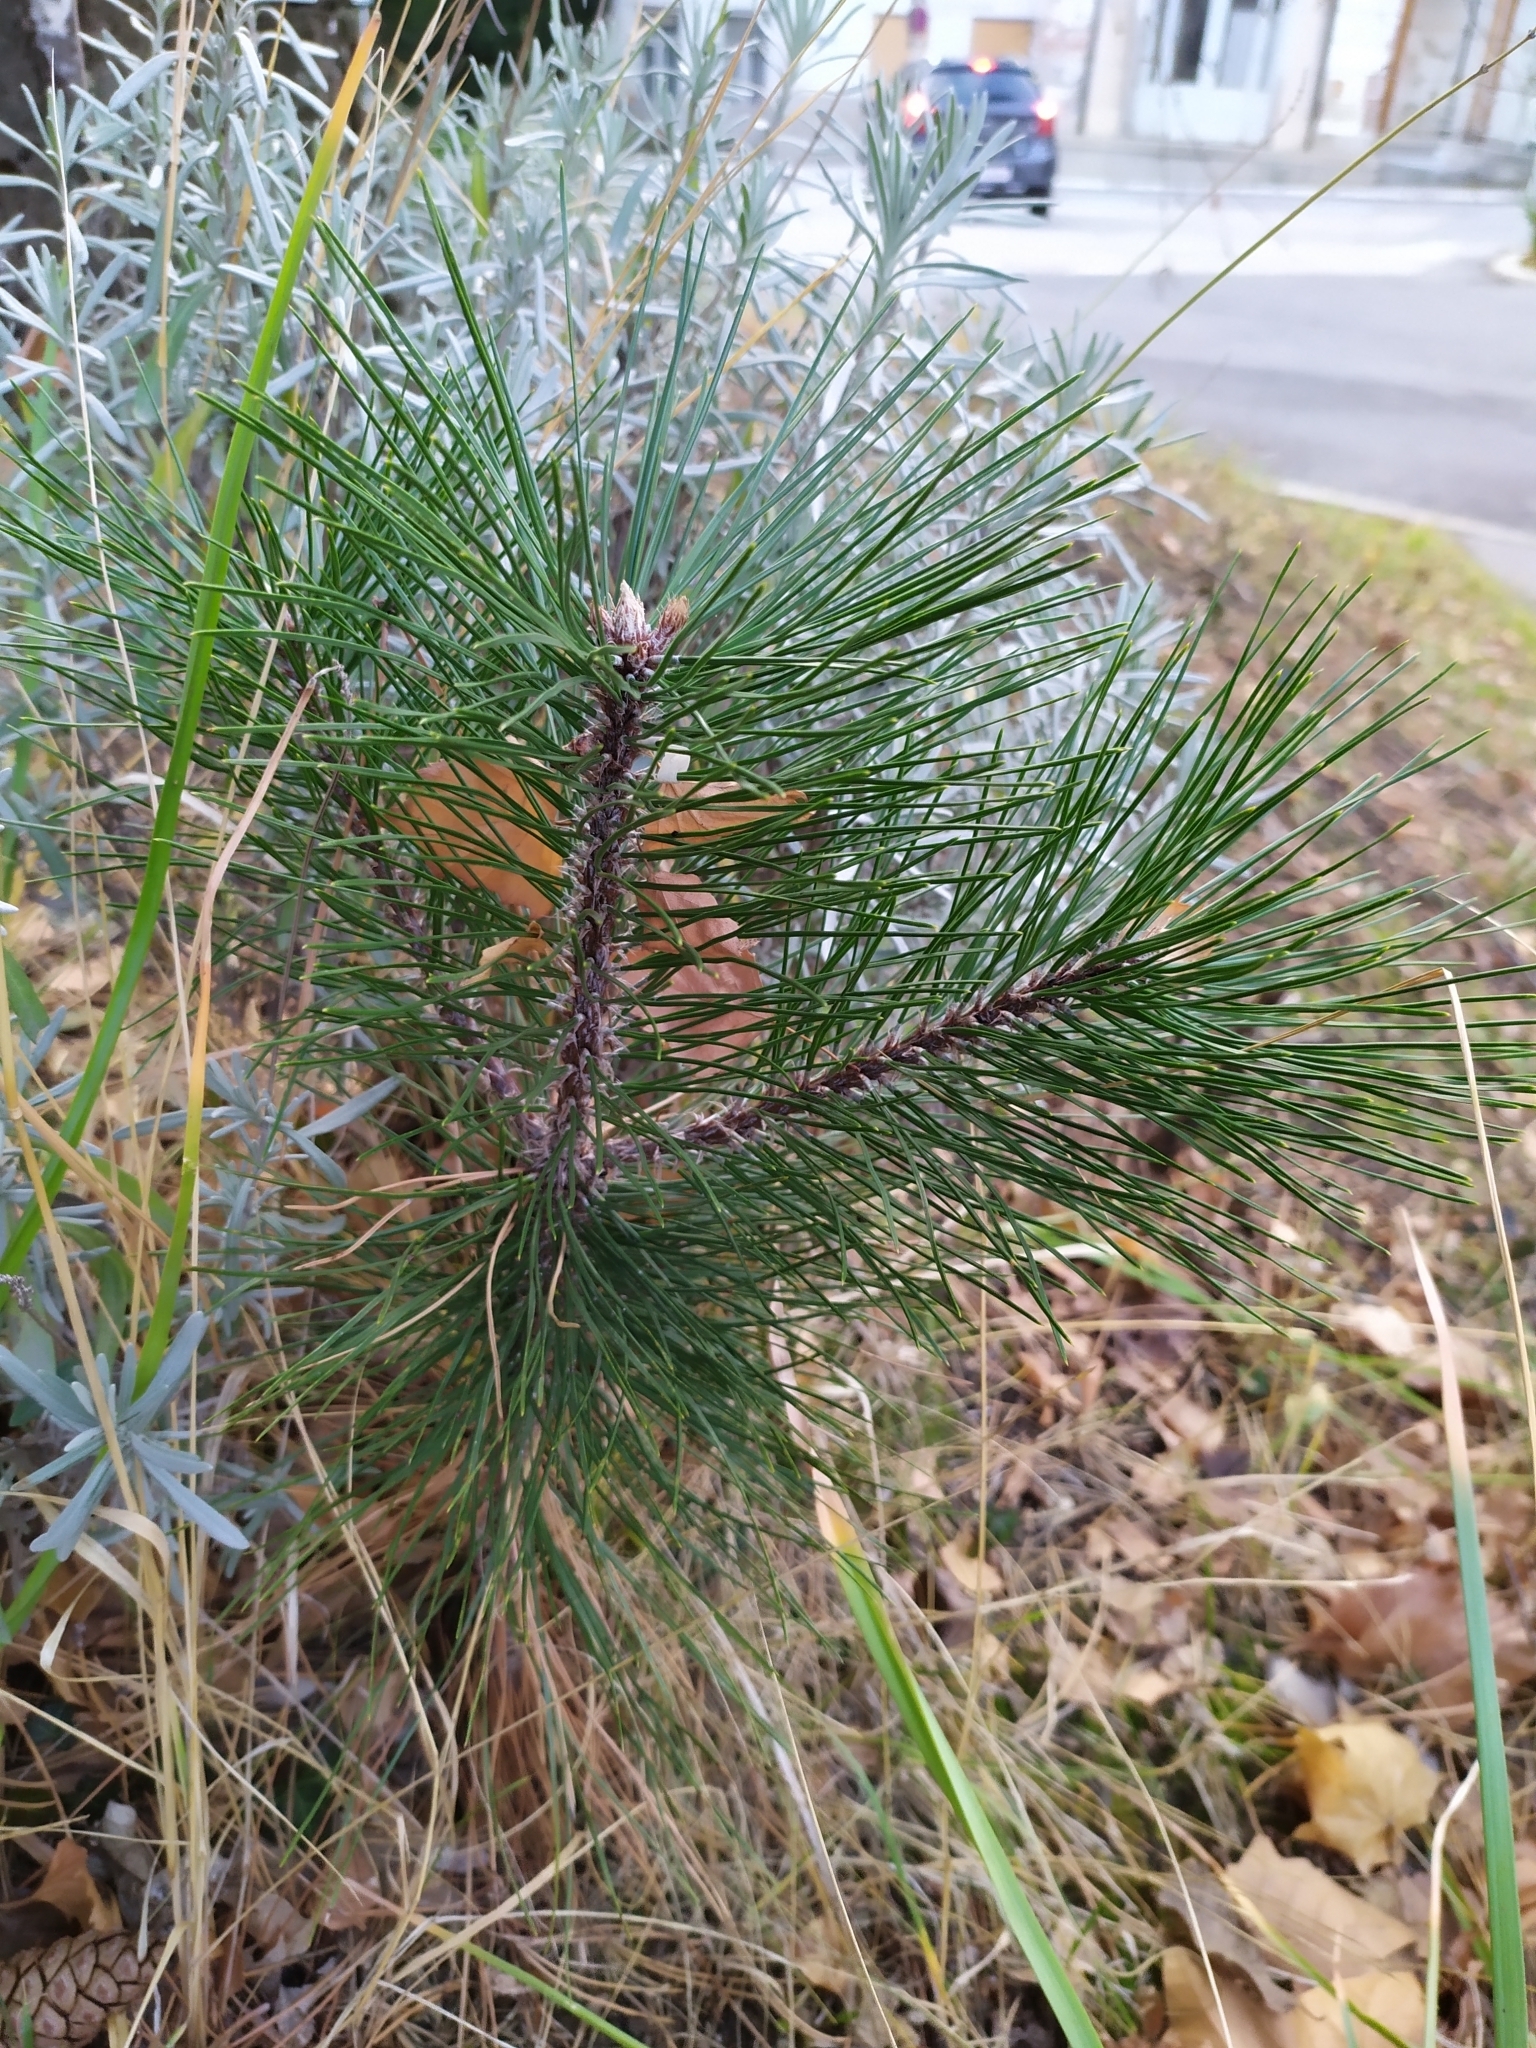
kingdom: Plantae
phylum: Tracheophyta
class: Pinopsida
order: Pinales
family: Pinaceae
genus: Pinus
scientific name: Pinus nigra
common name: Austrian pine
